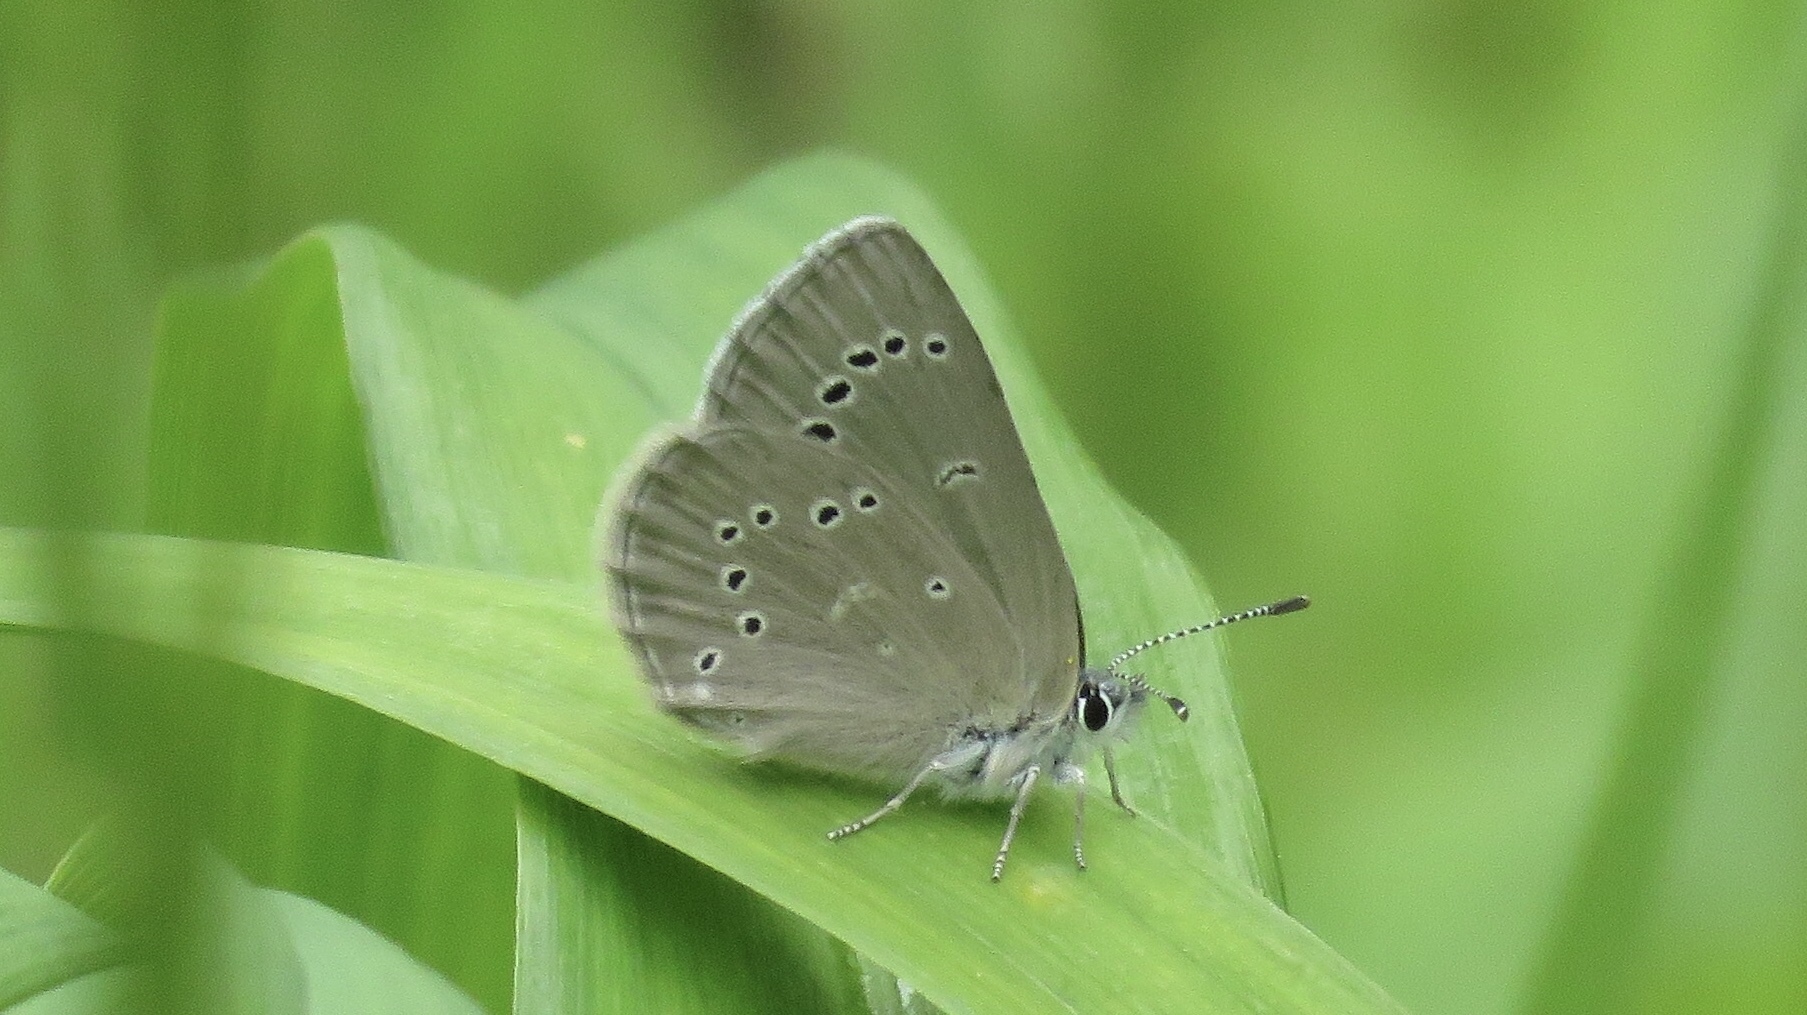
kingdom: Animalia
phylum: Arthropoda
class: Insecta
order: Lepidoptera
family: Lycaenidae
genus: Glaucopsyche
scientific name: Glaucopsyche lygdamus
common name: Silvery blue
